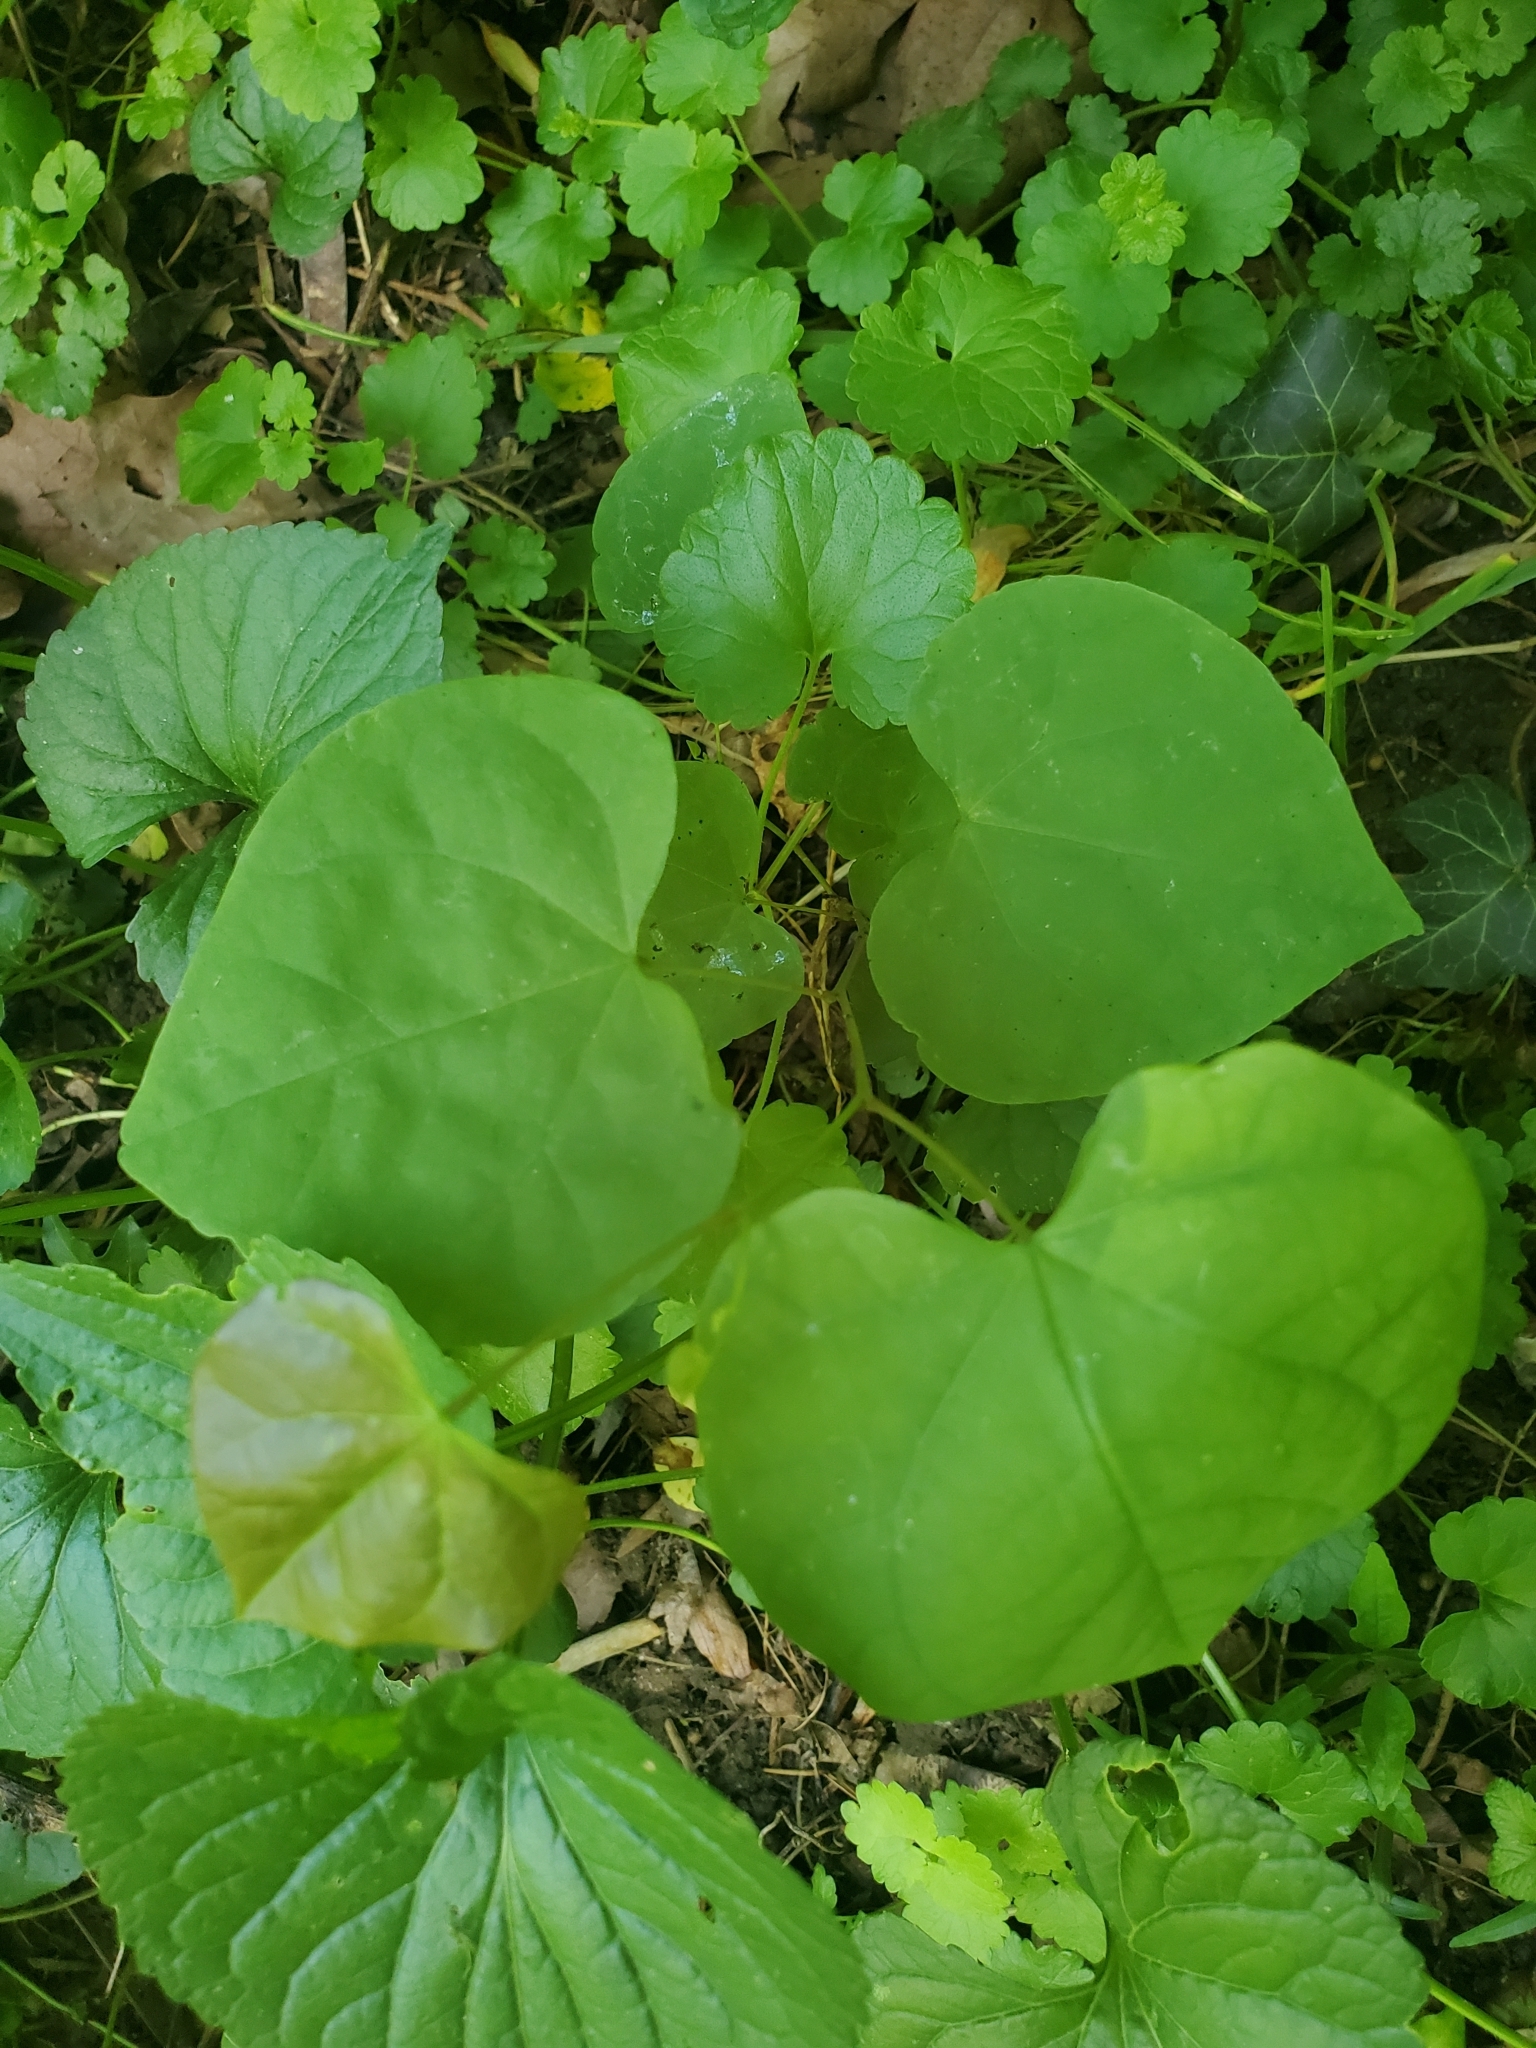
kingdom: Plantae
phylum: Tracheophyta
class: Magnoliopsida
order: Fabales
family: Fabaceae
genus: Cercis
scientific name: Cercis canadensis
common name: Eastern redbud
